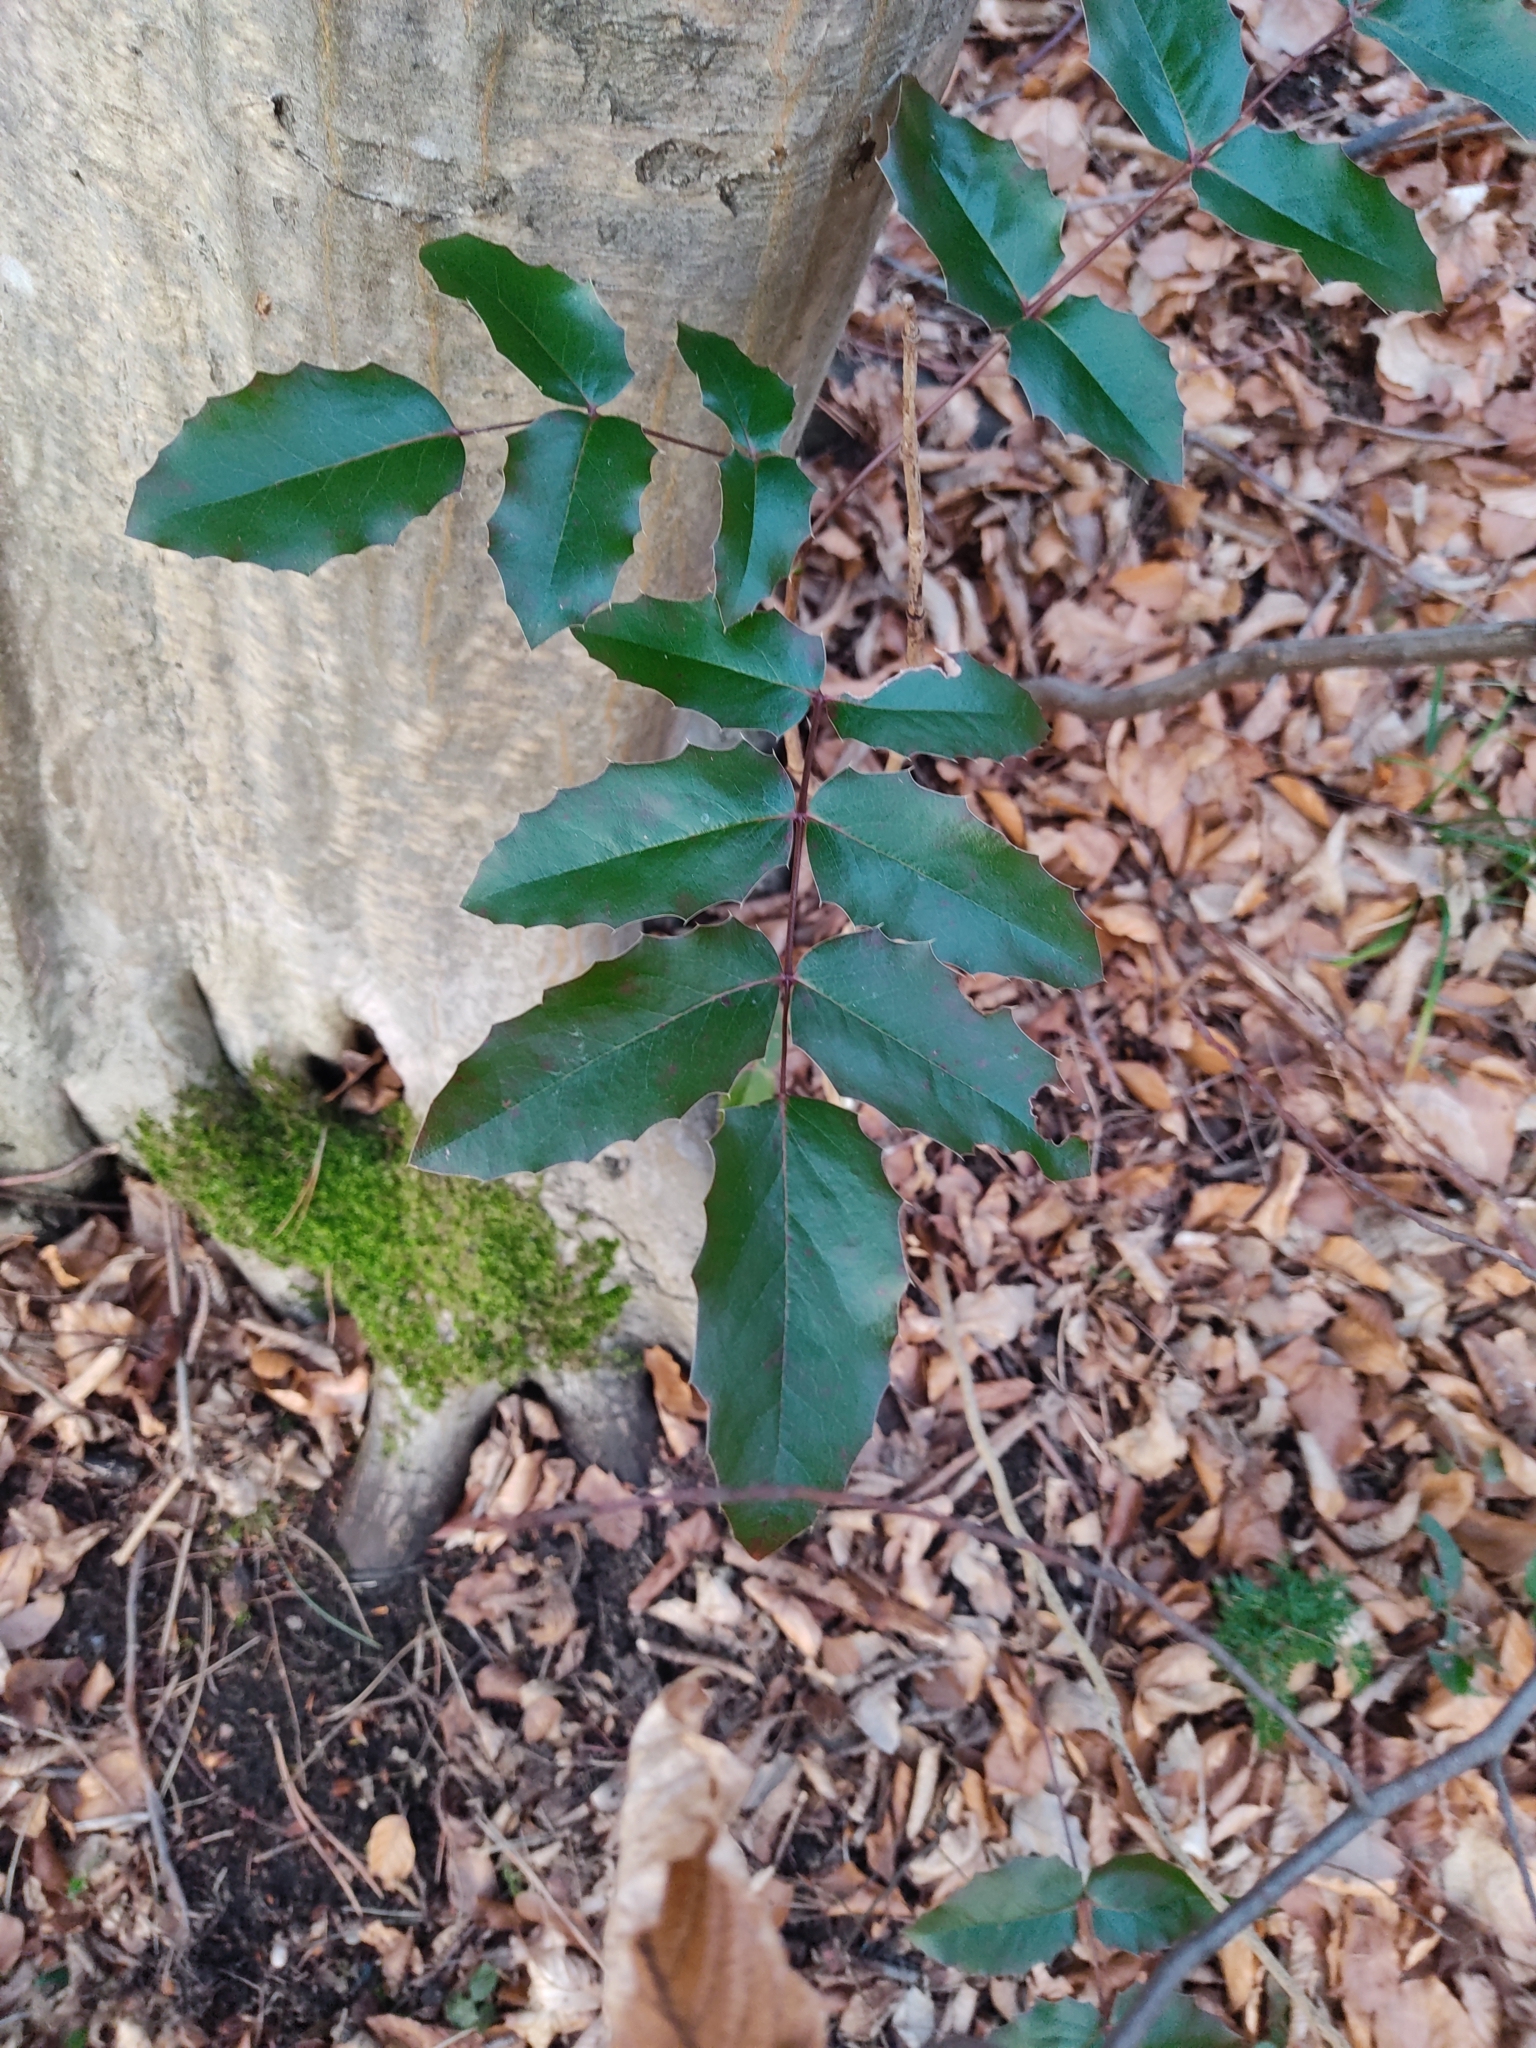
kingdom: Plantae
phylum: Tracheophyta
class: Magnoliopsida
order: Ranunculales
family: Berberidaceae
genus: Mahonia
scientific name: Mahonia aquifolium
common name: Oregon-grape
